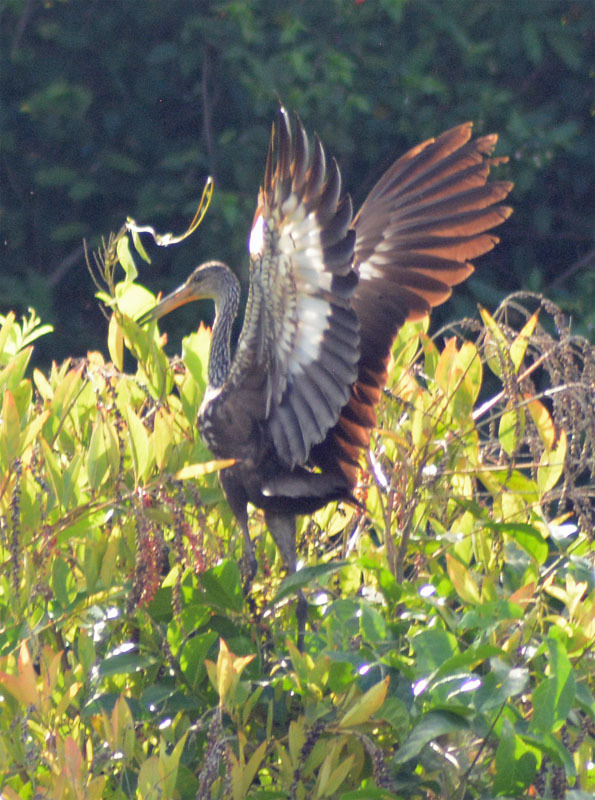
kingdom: Animalia
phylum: Chordata
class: Aves
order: Gruiformes
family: Aramidae
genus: Aramus
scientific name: Aramus guarauna
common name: Limpkin
